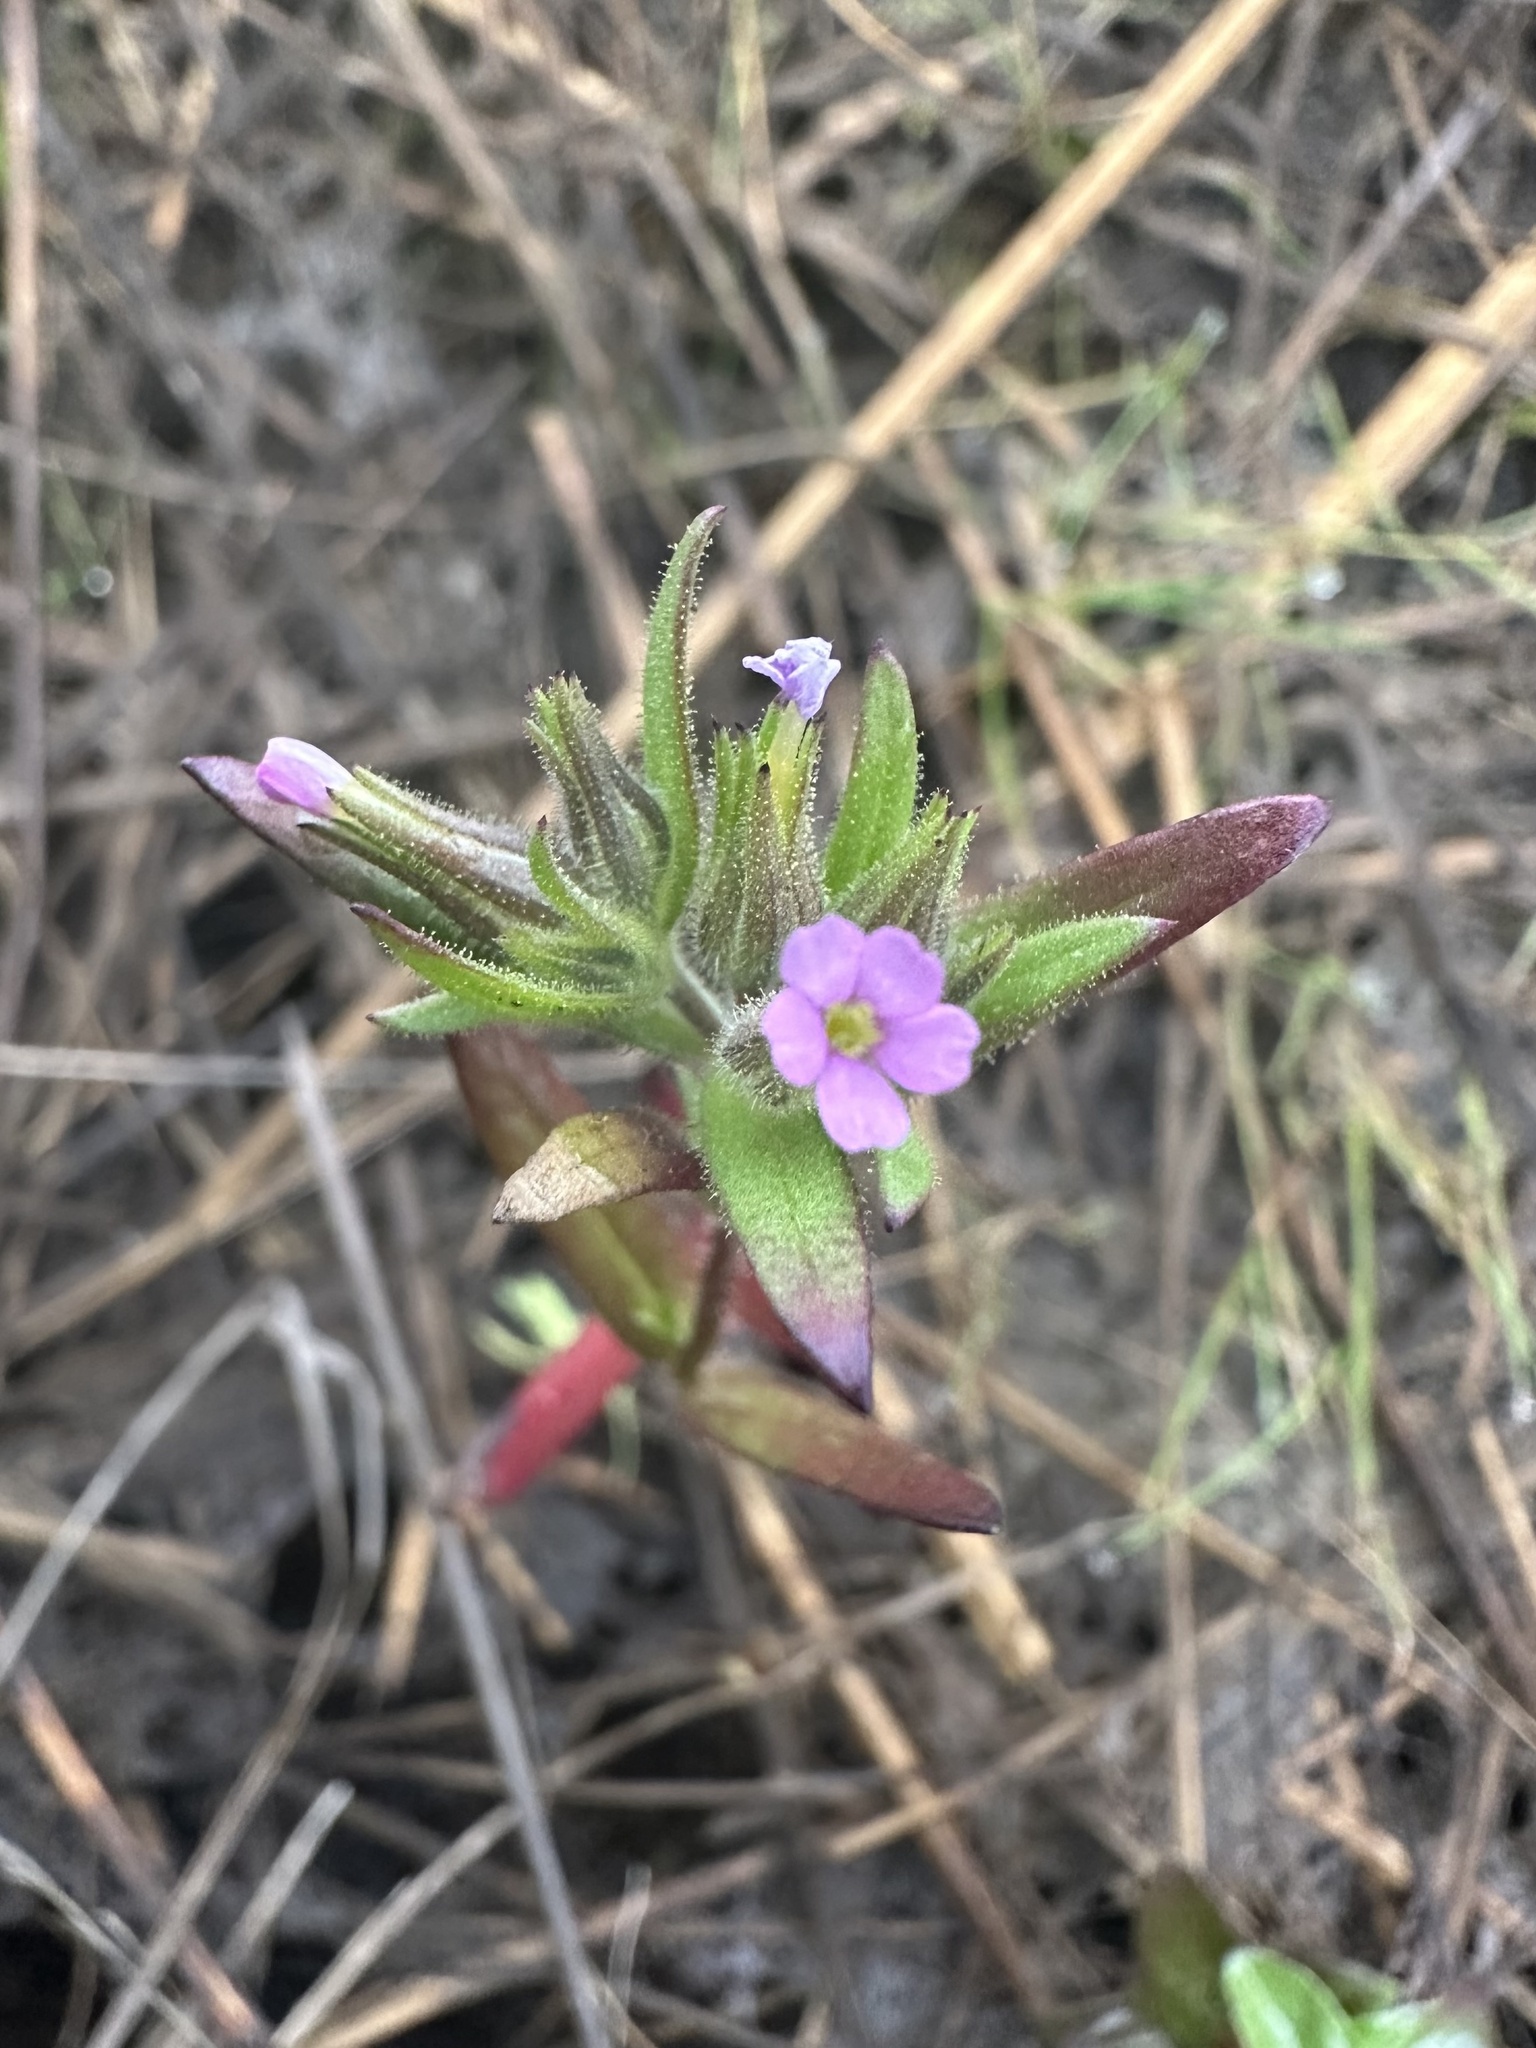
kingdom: Plantae
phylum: Tracheophyta
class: Magnoliopsida
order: Ericales
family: Polemoniaceae
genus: Phlox
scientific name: Phlox gracilis
